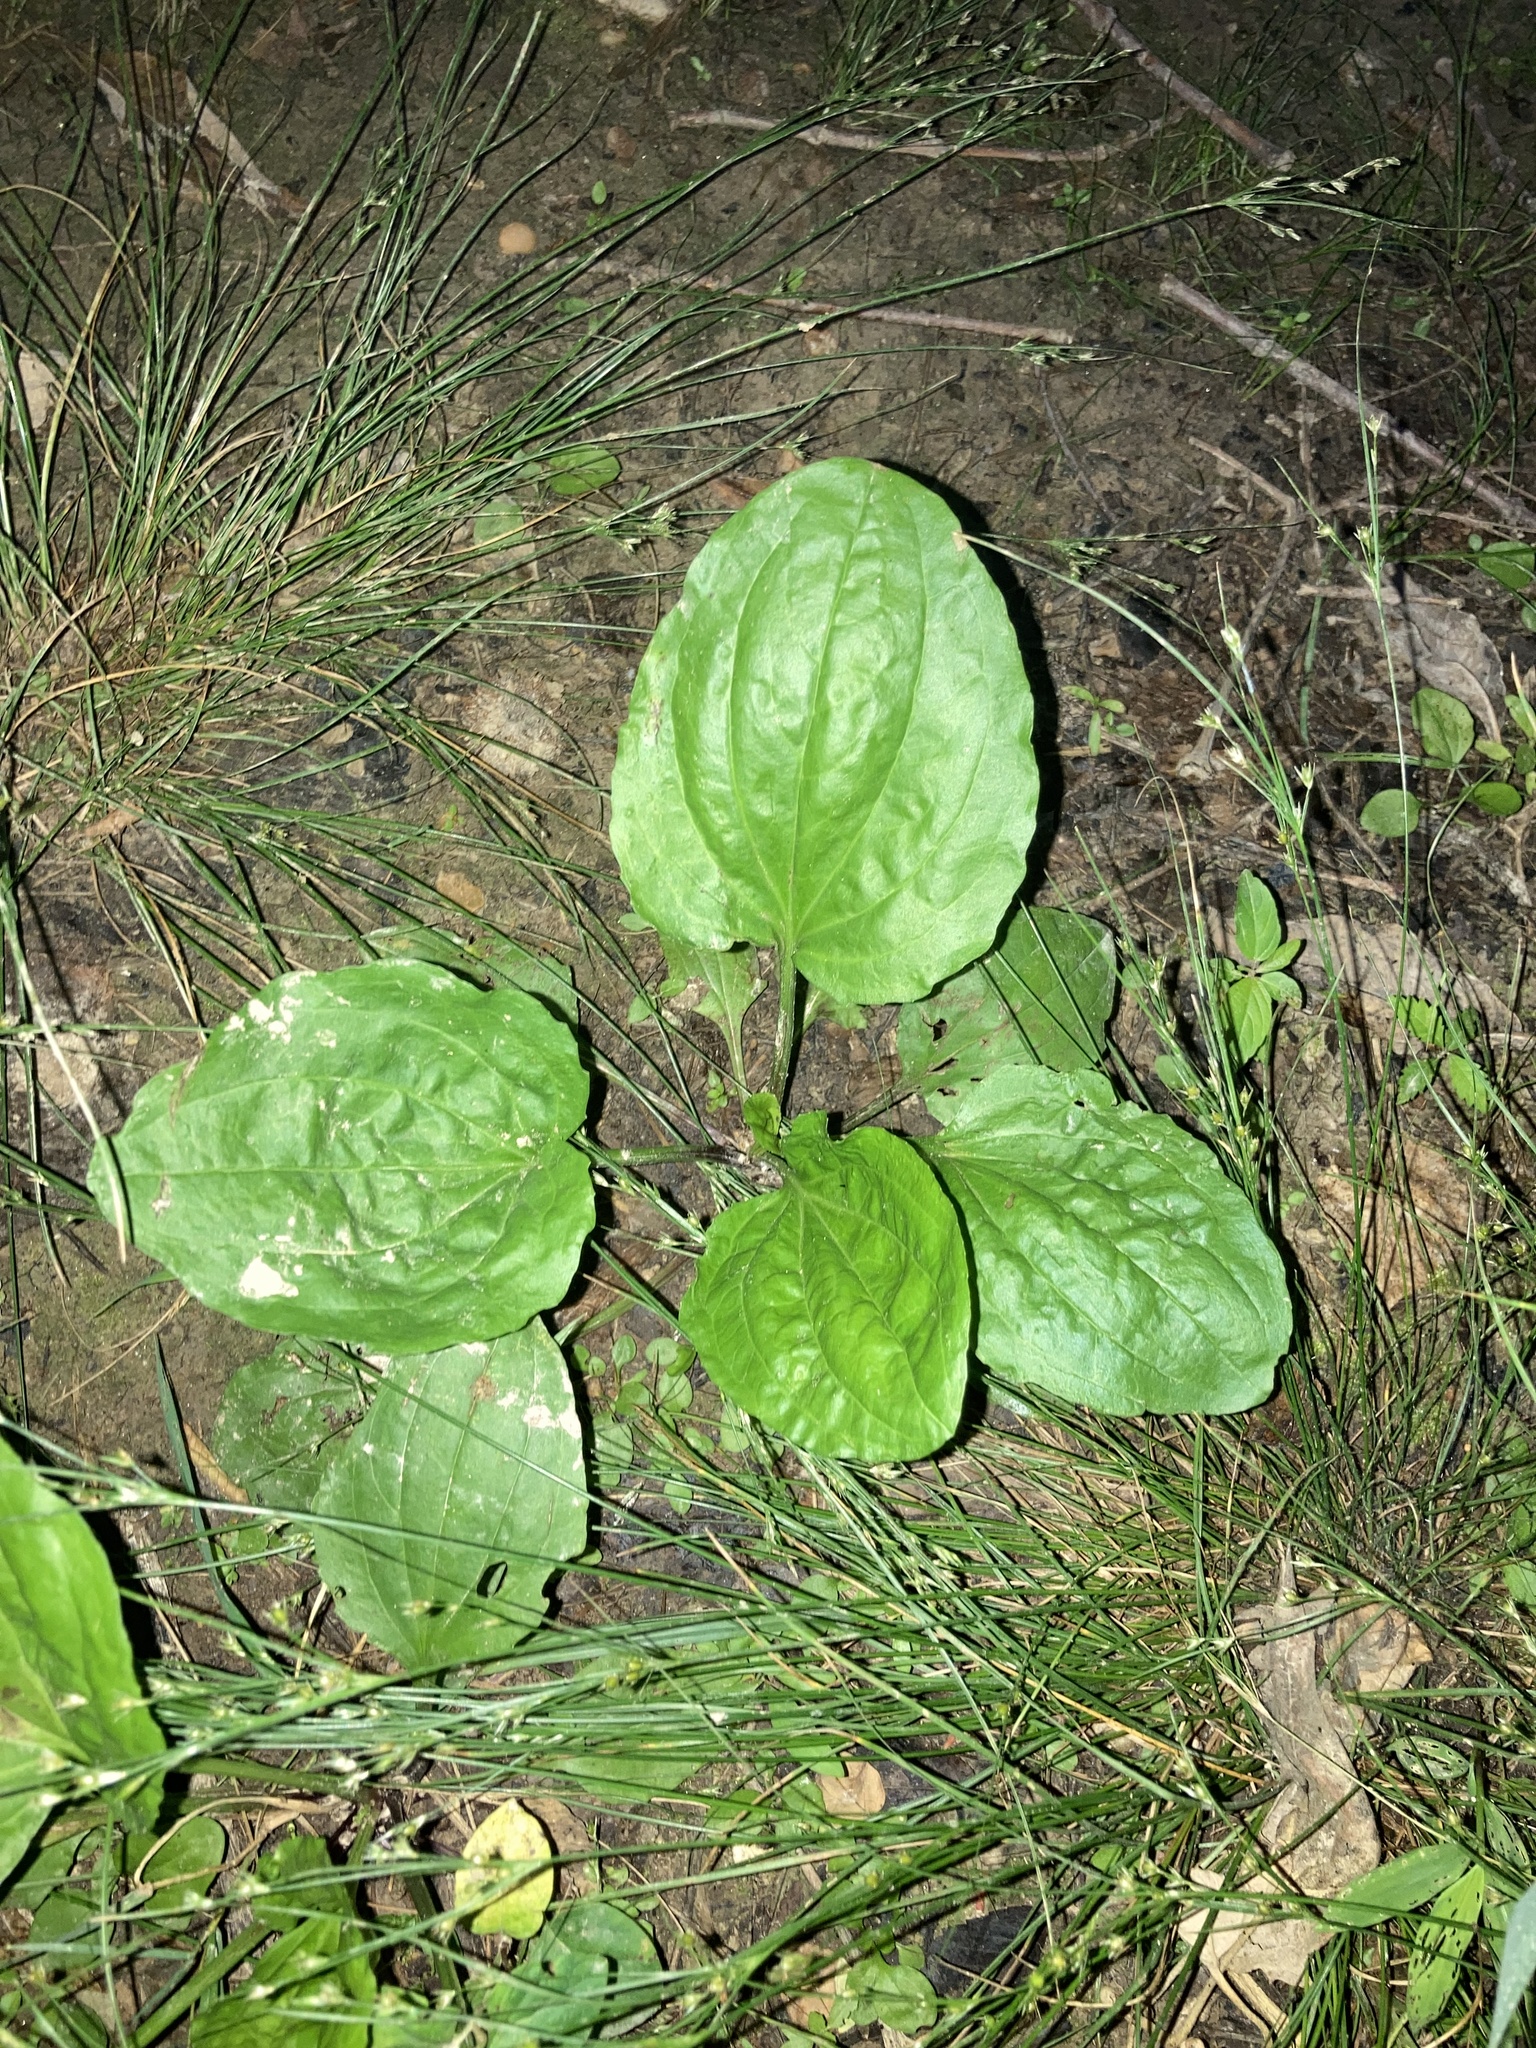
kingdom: Plantae
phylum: Tracheophyta
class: Magnoliopsida
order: Lamiales
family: Plantaginaceae
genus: Plantago
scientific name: Plantago rugelii
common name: American plantain
